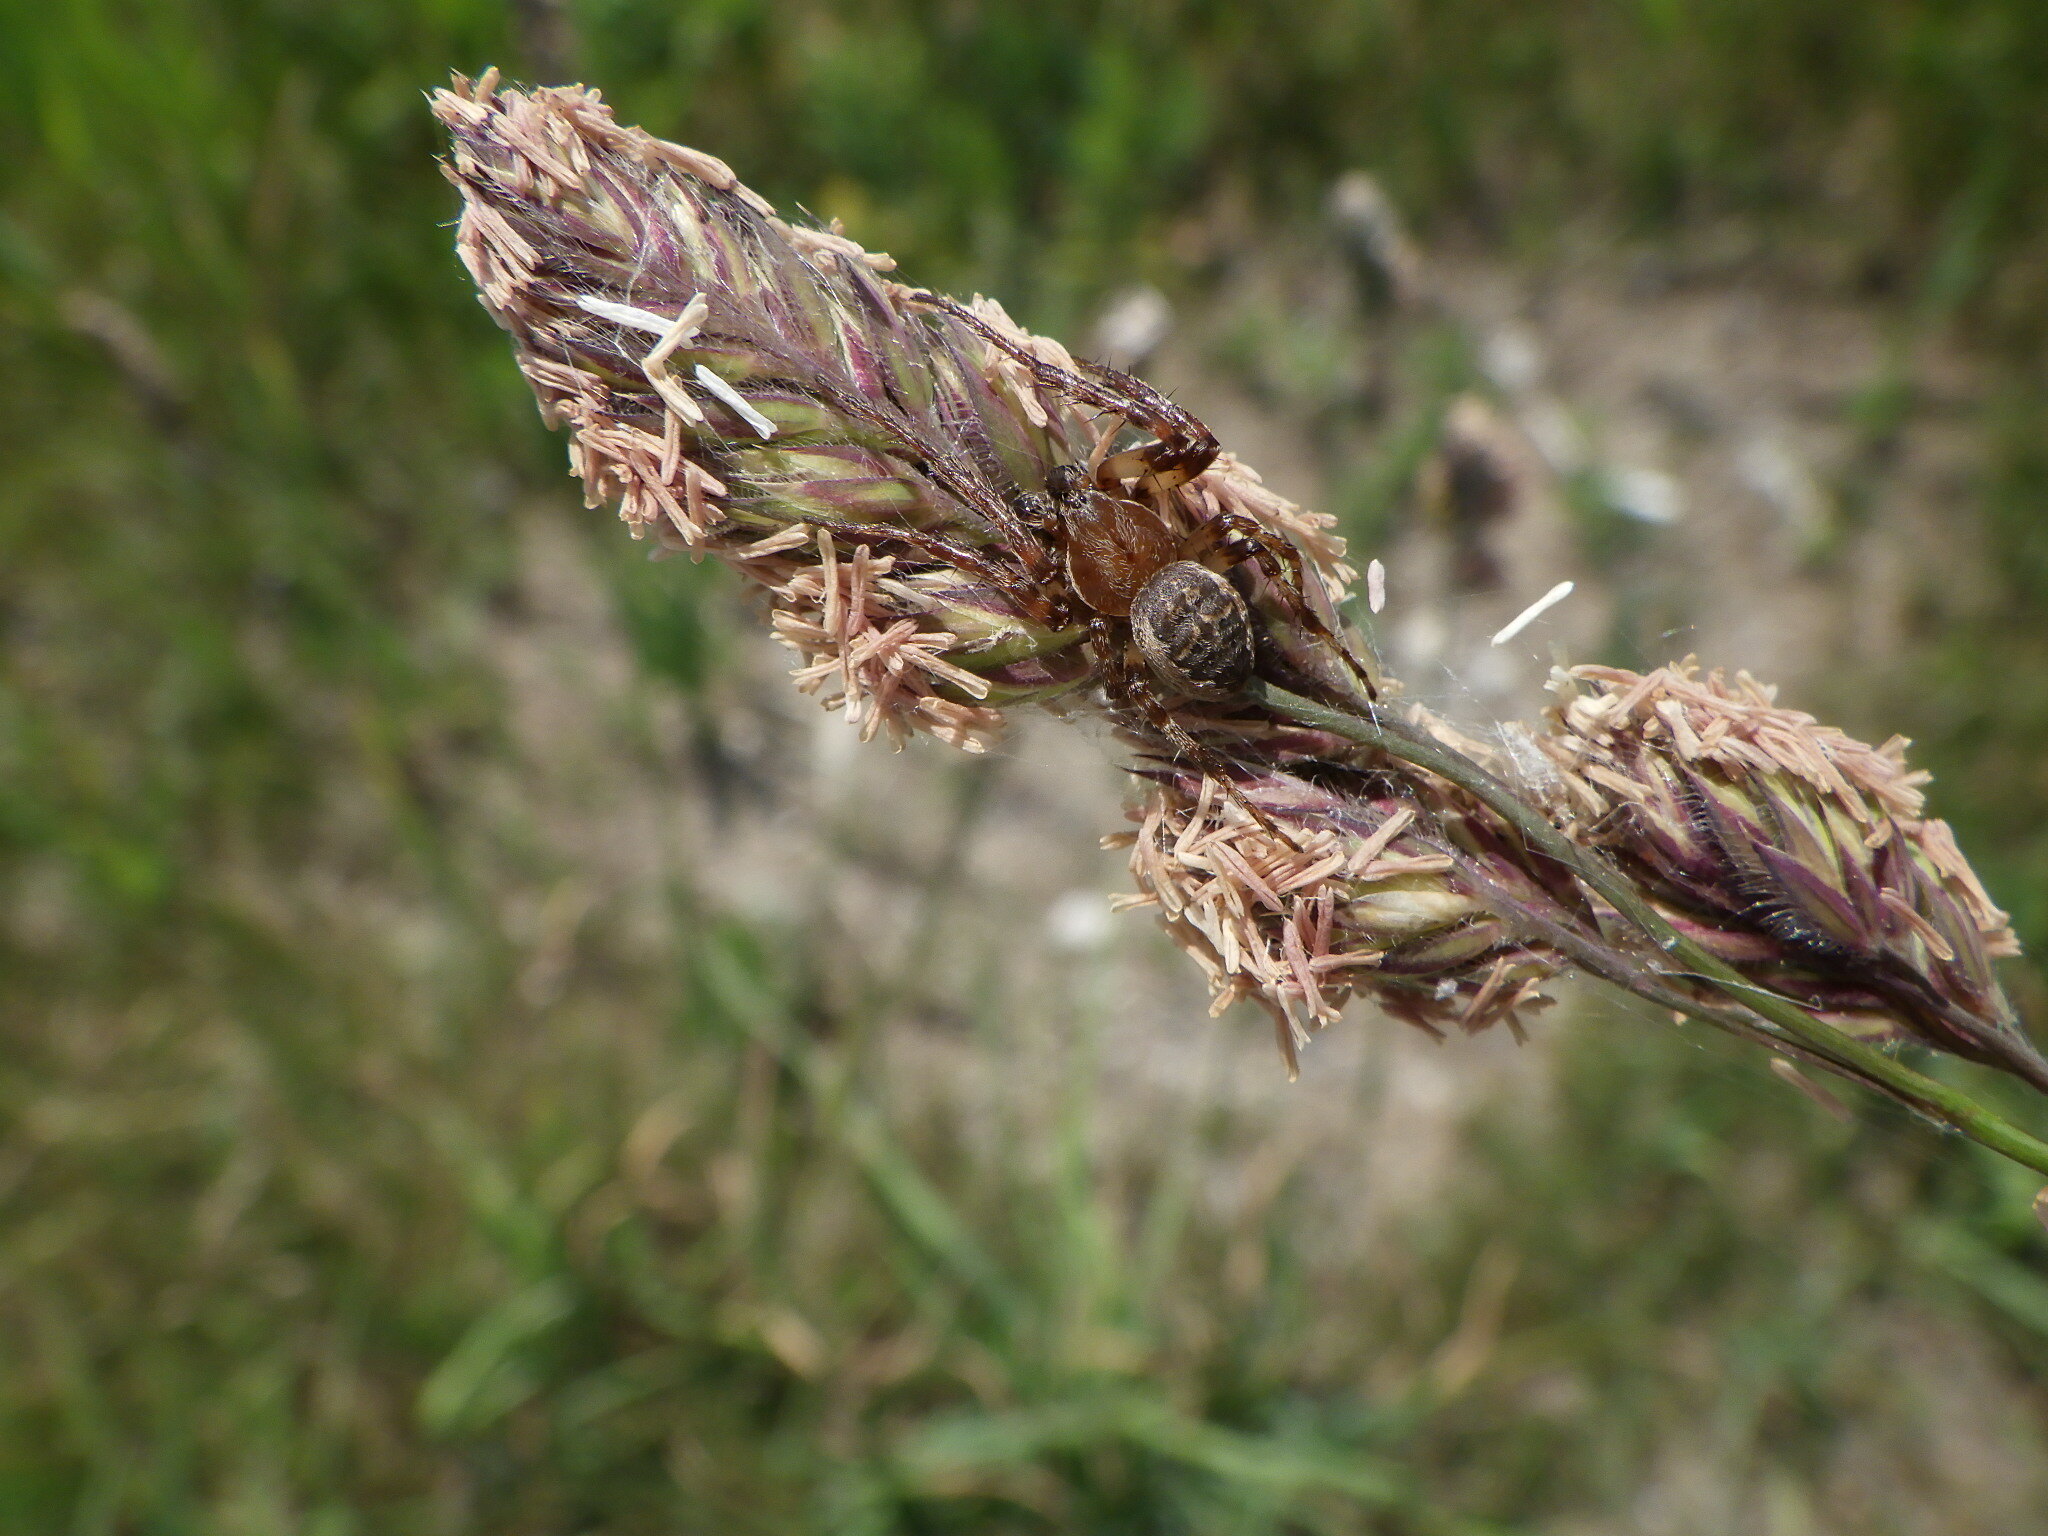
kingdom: Plantae
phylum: Tracheophyta
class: Liliopsida
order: Poales
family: Poaceae
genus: Dactylis
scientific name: Dactylis glomerata
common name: Orchardgrass
